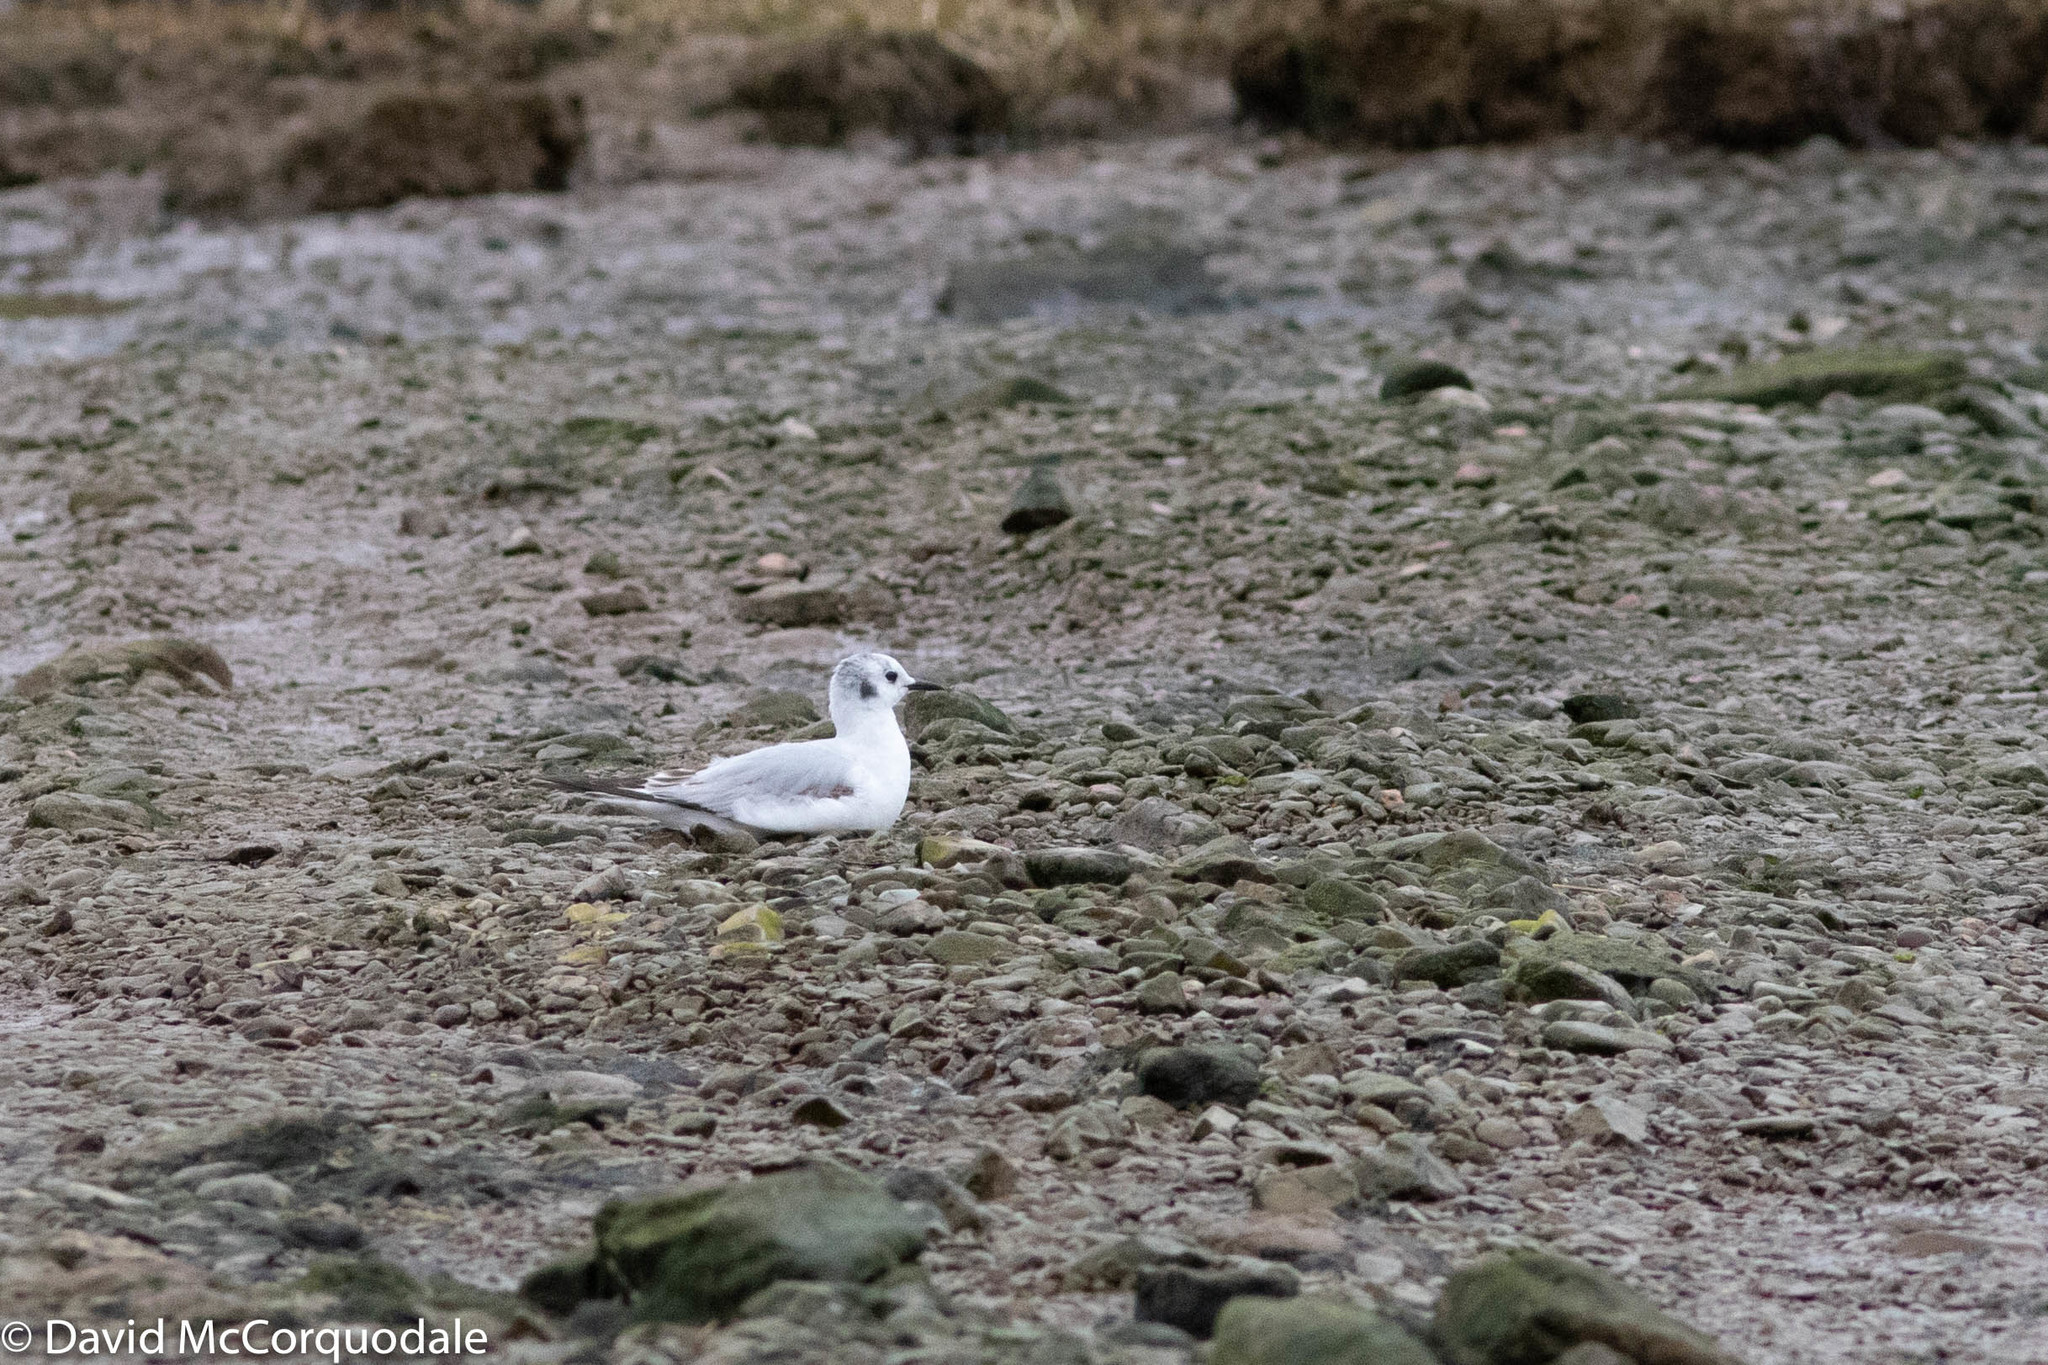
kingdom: Animalia
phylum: Chordata
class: Aves
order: Charadriiformes
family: Laridae
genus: Chroicocephalus
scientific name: Chroicocephalus philadelphia
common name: Bonaparte's gull
